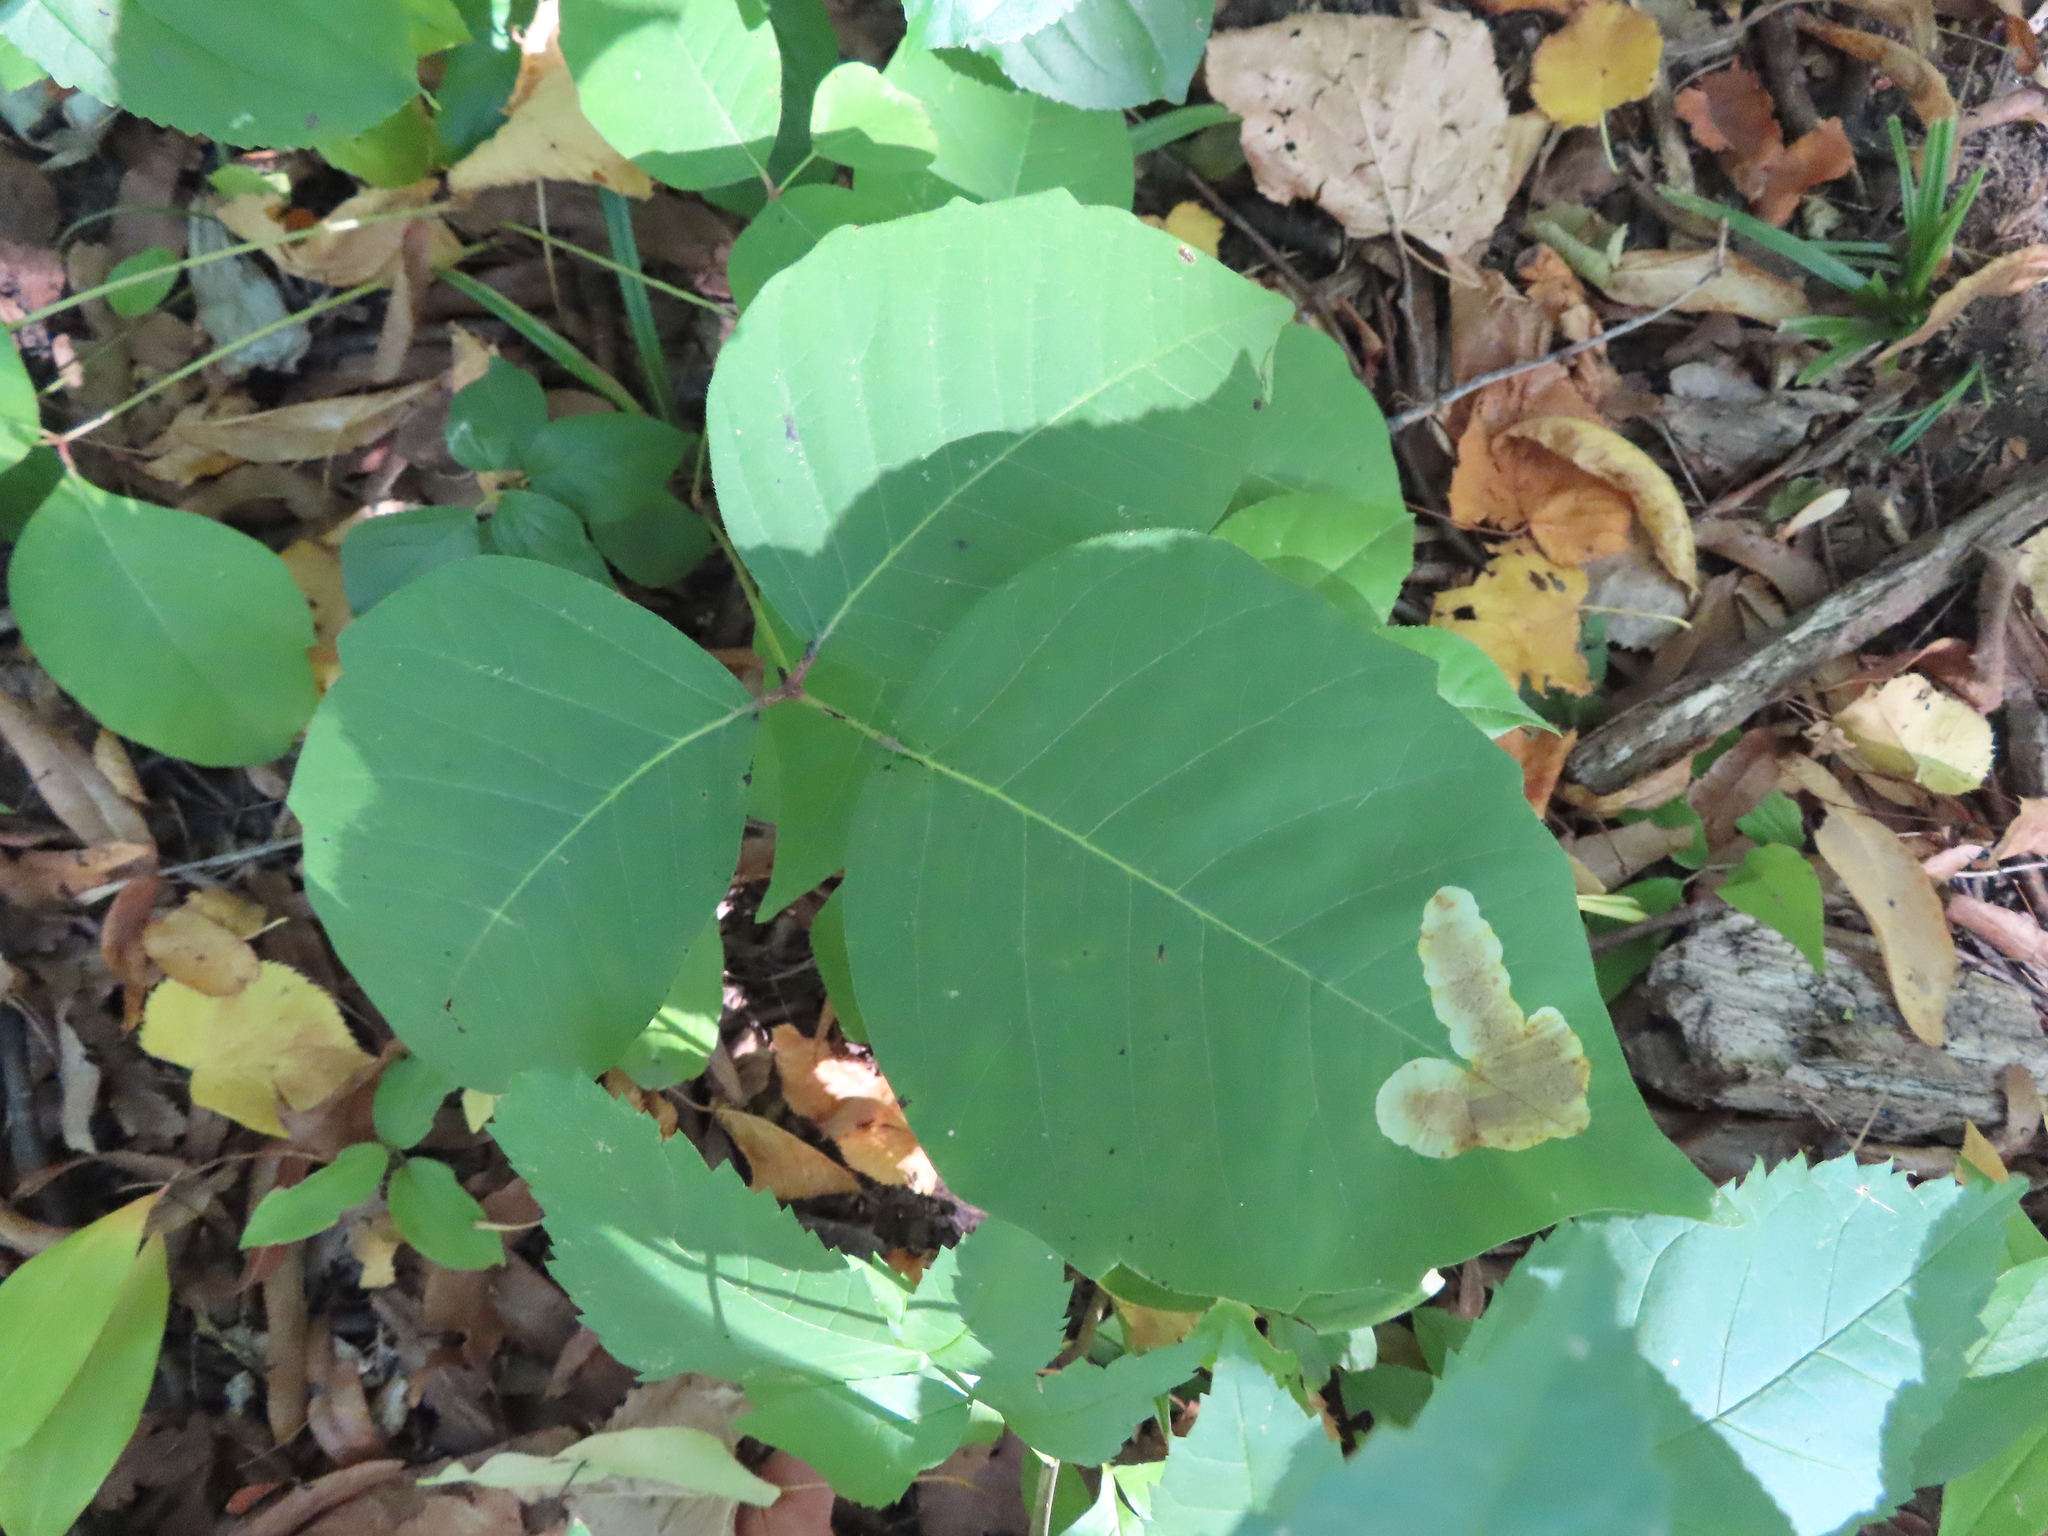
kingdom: Plantae
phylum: Tracheophyta
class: Magnoliopsida
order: Sapindales
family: Anacardiaceae
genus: Toxicodendron
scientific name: Toxicodendron radicans
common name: Poison ivy
